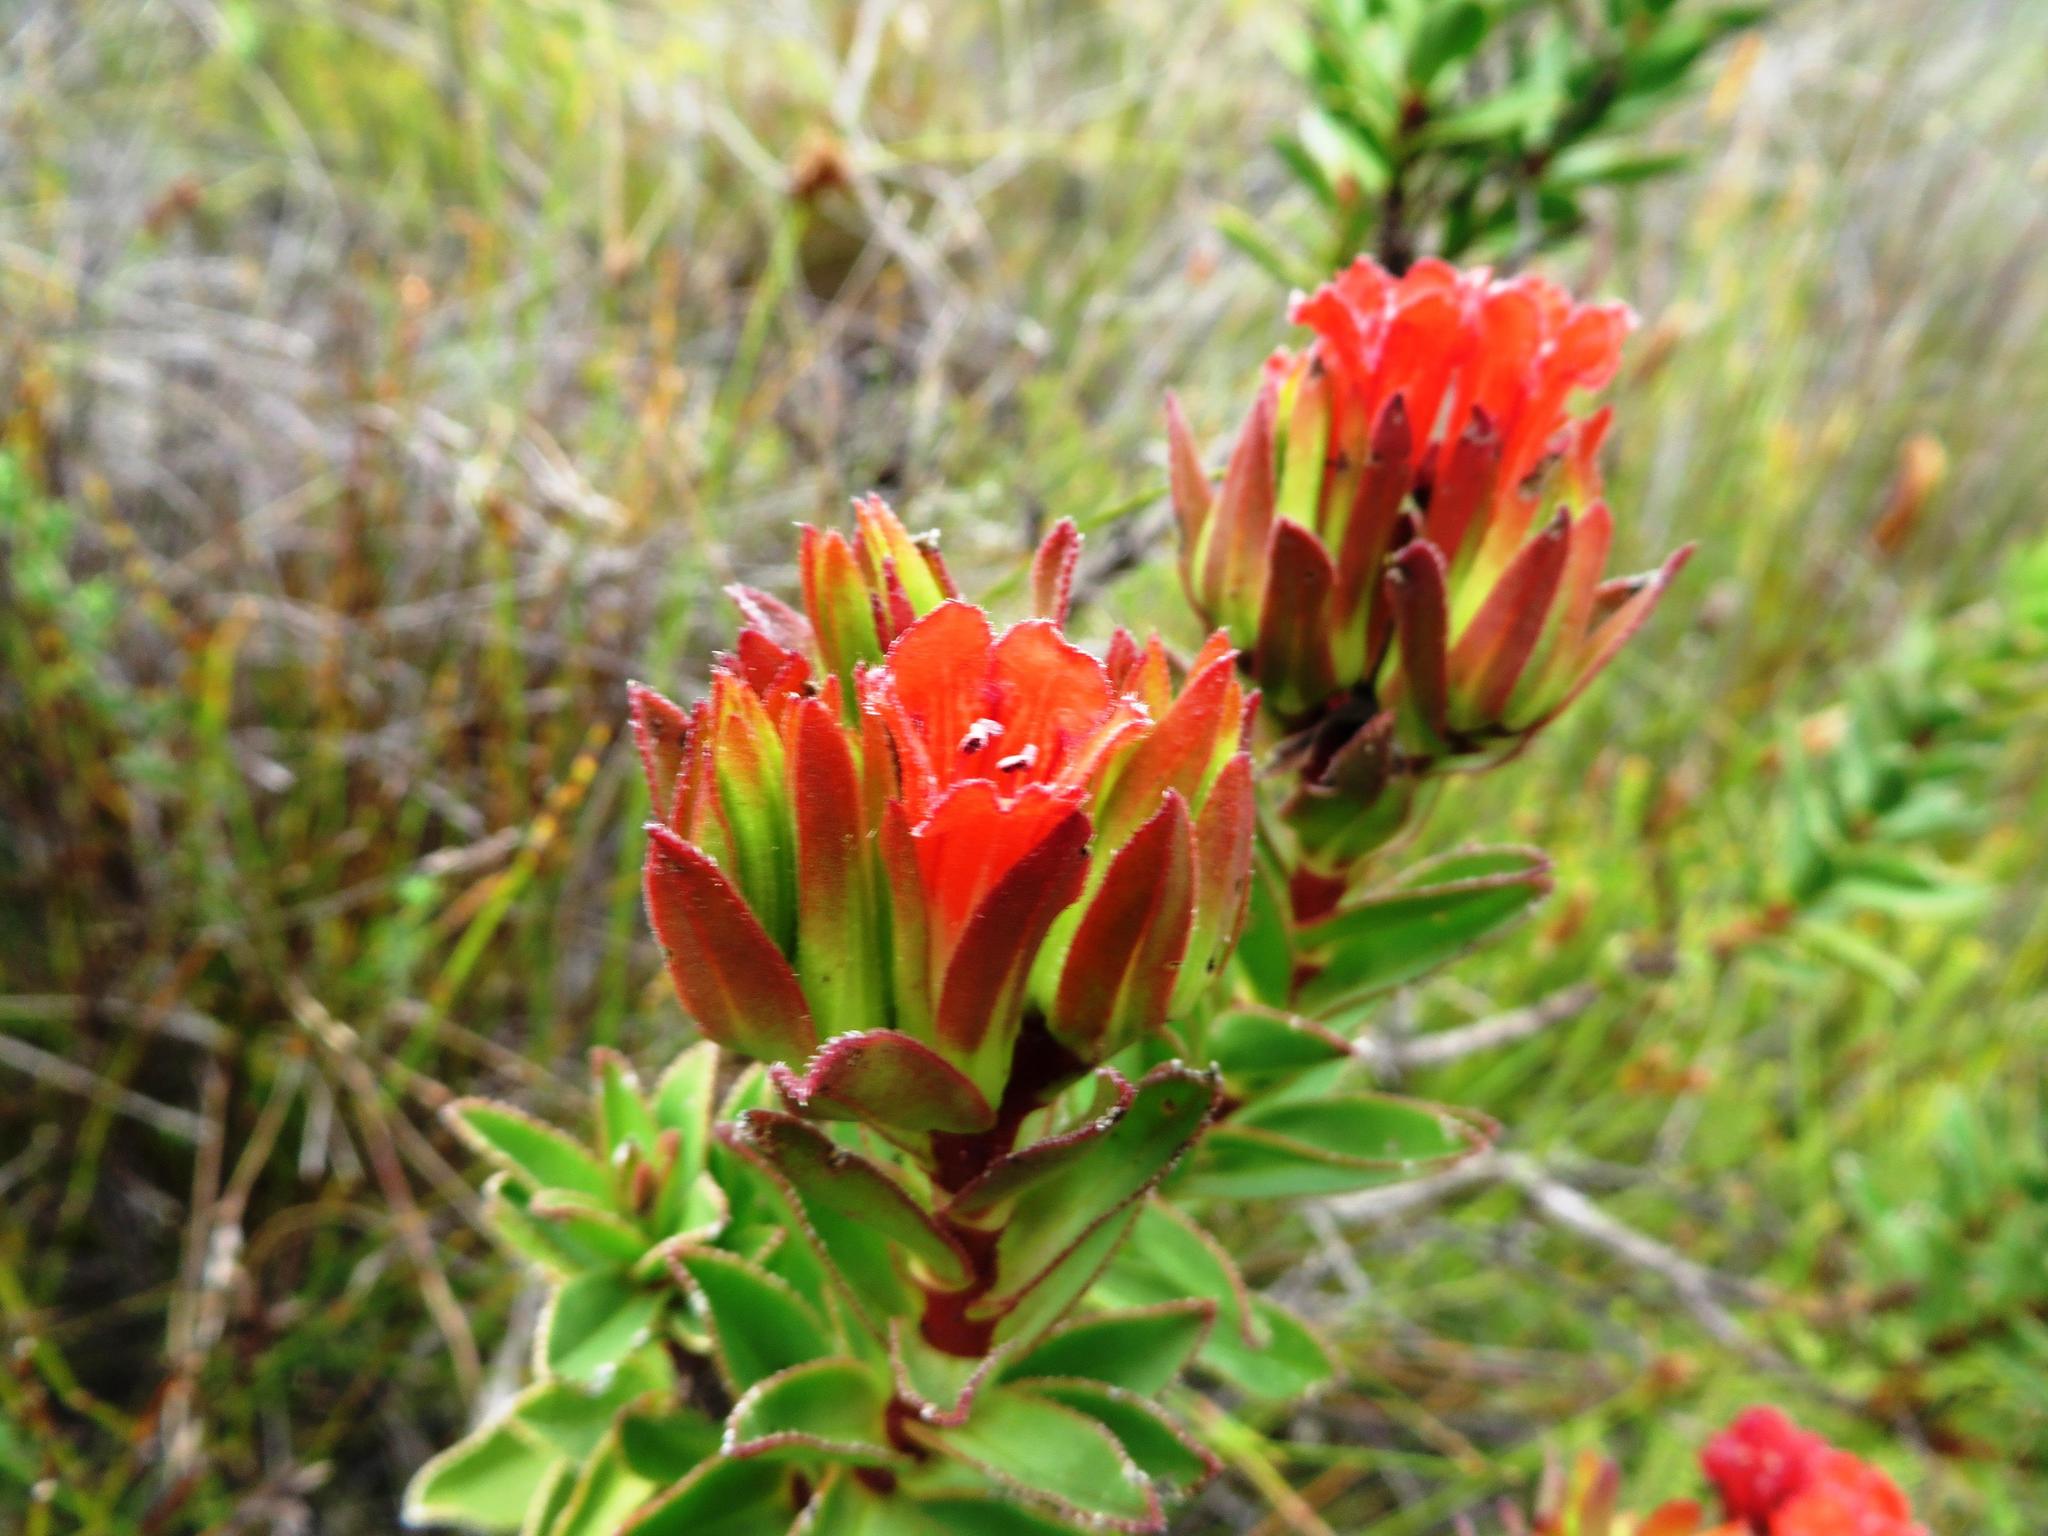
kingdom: Plantae
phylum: Tracheophyta
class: Magnoliopsida
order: Boraginales
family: Boraginaceae
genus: Lobostemon
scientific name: Lobostemon sanguineus
